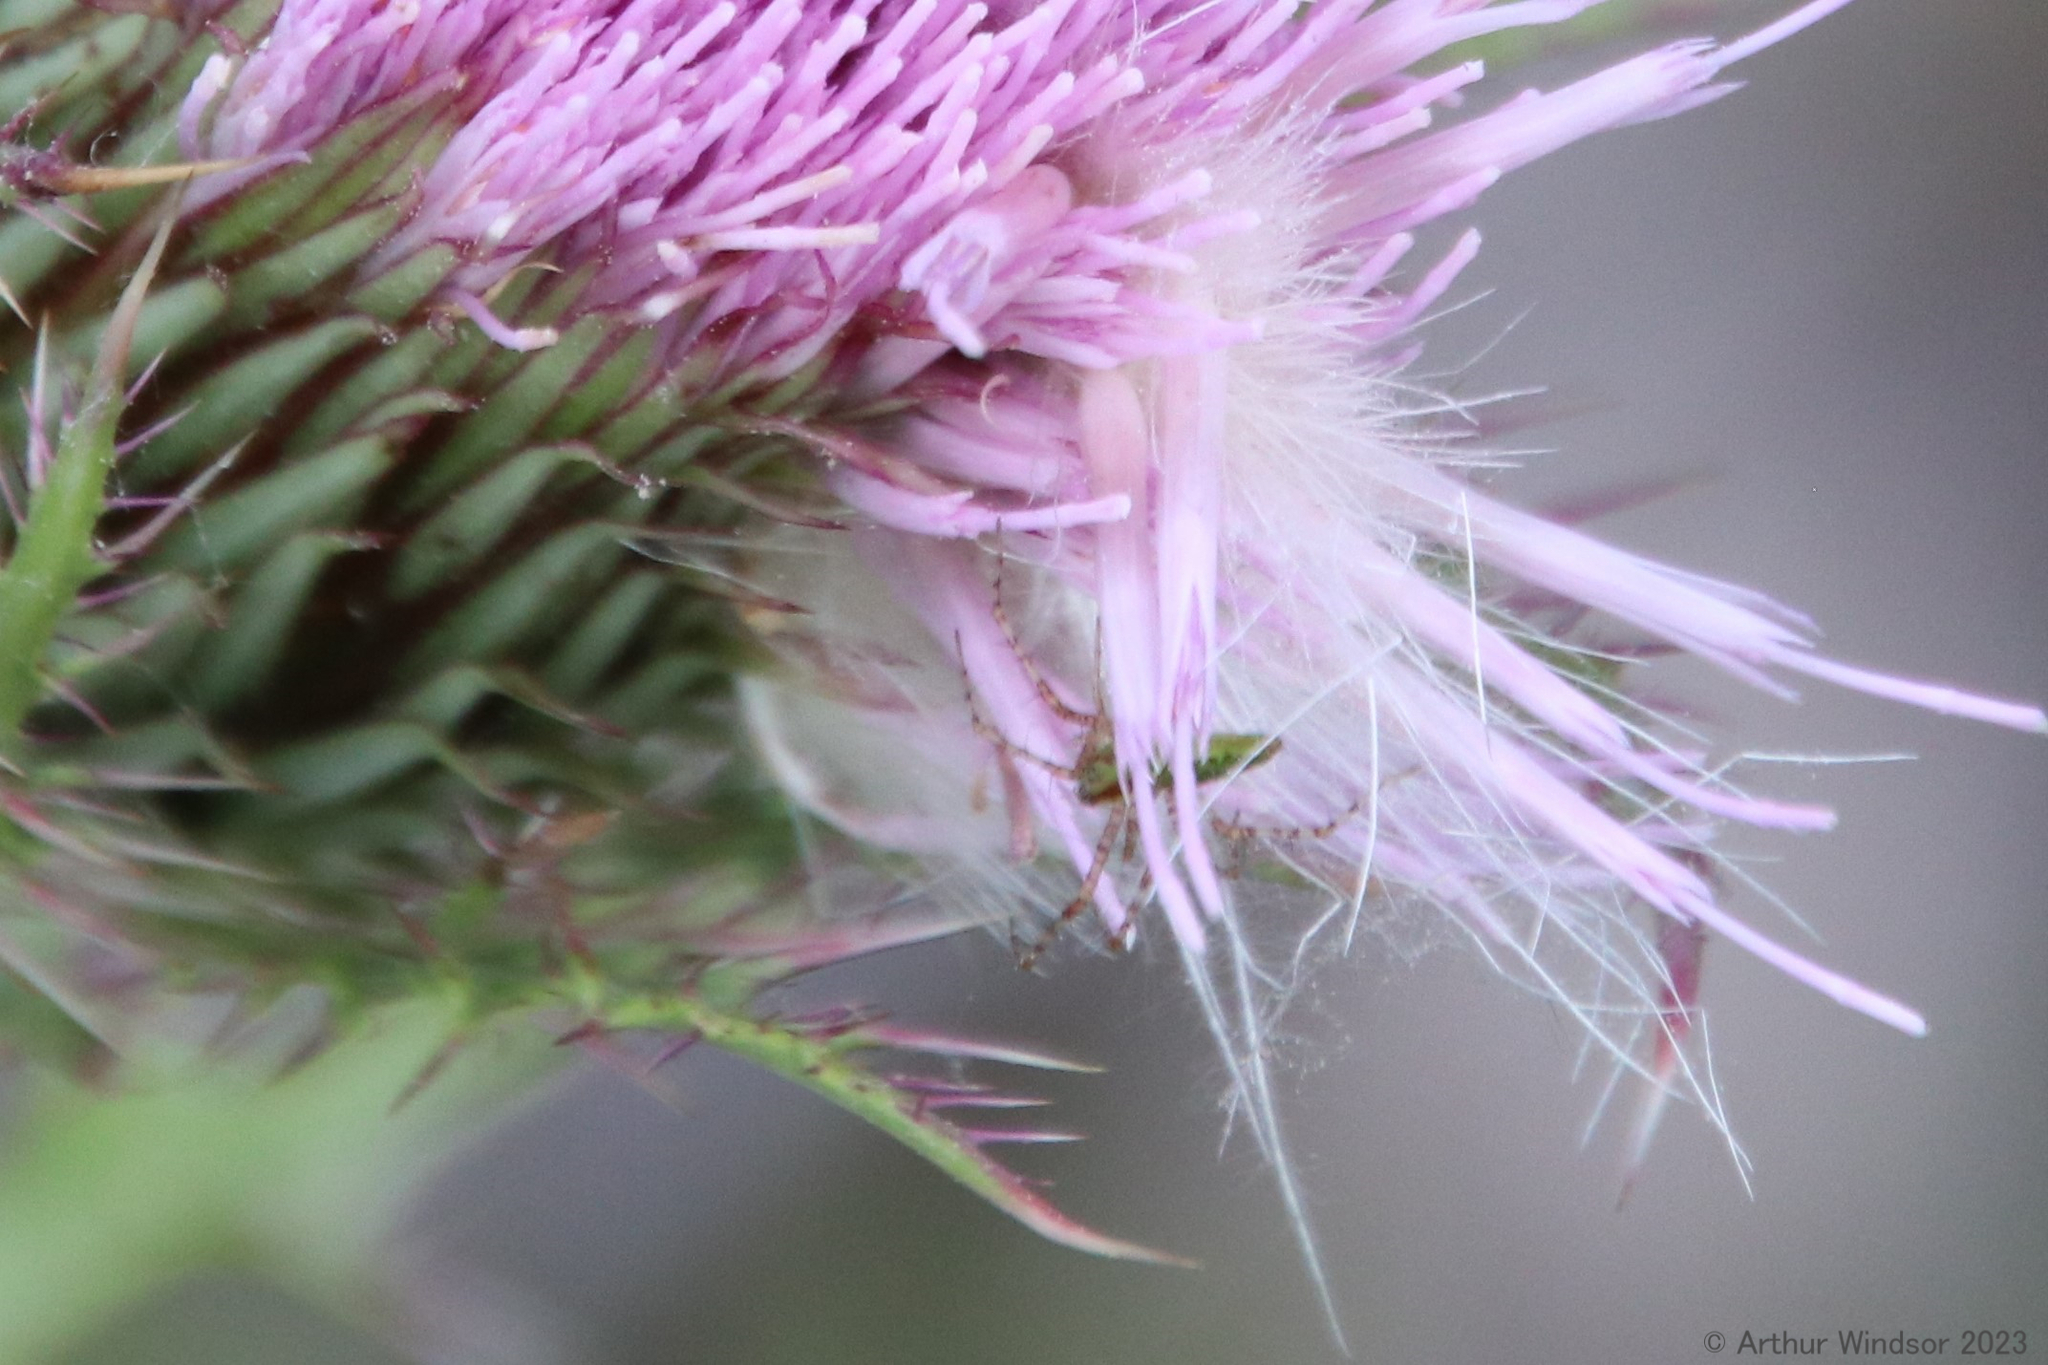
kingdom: Animalia
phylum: Arthropoda
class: Arachnida
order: Araneae
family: Oxyopidae
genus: Peucetia
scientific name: Peucetia viridans
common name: Lynx spiders
